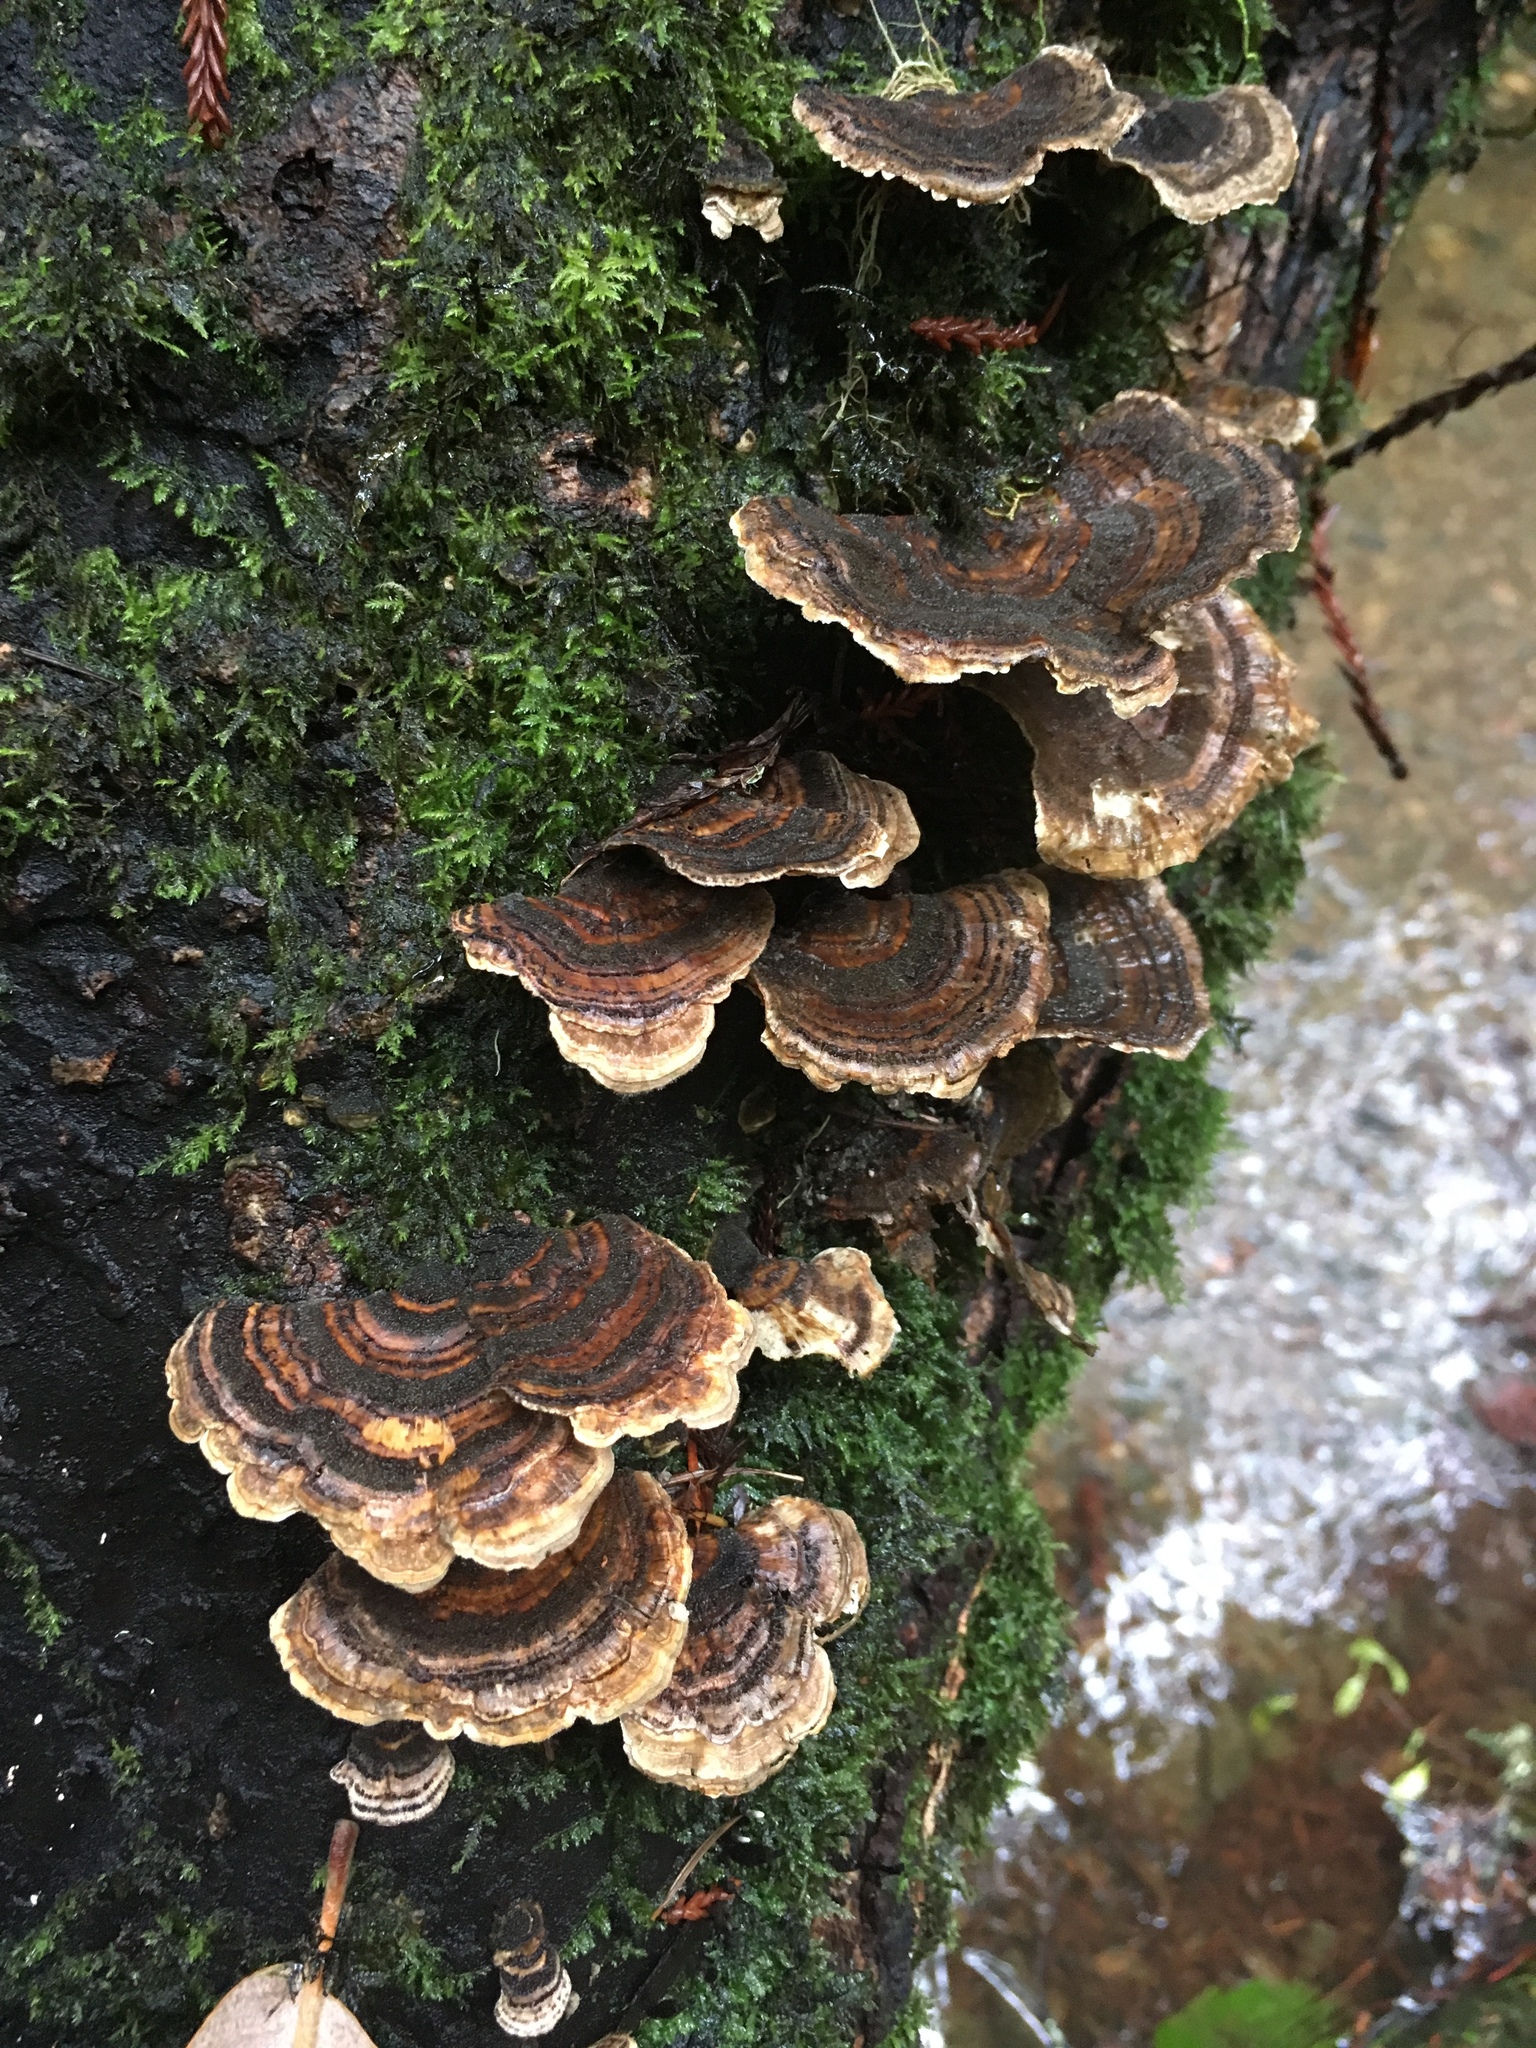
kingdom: Fungi
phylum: Basidiomycota
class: Agaricomycetes
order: Polyporales
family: Polyporaceae
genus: Trametes
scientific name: Trametes versicolor
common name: Turkeytail
